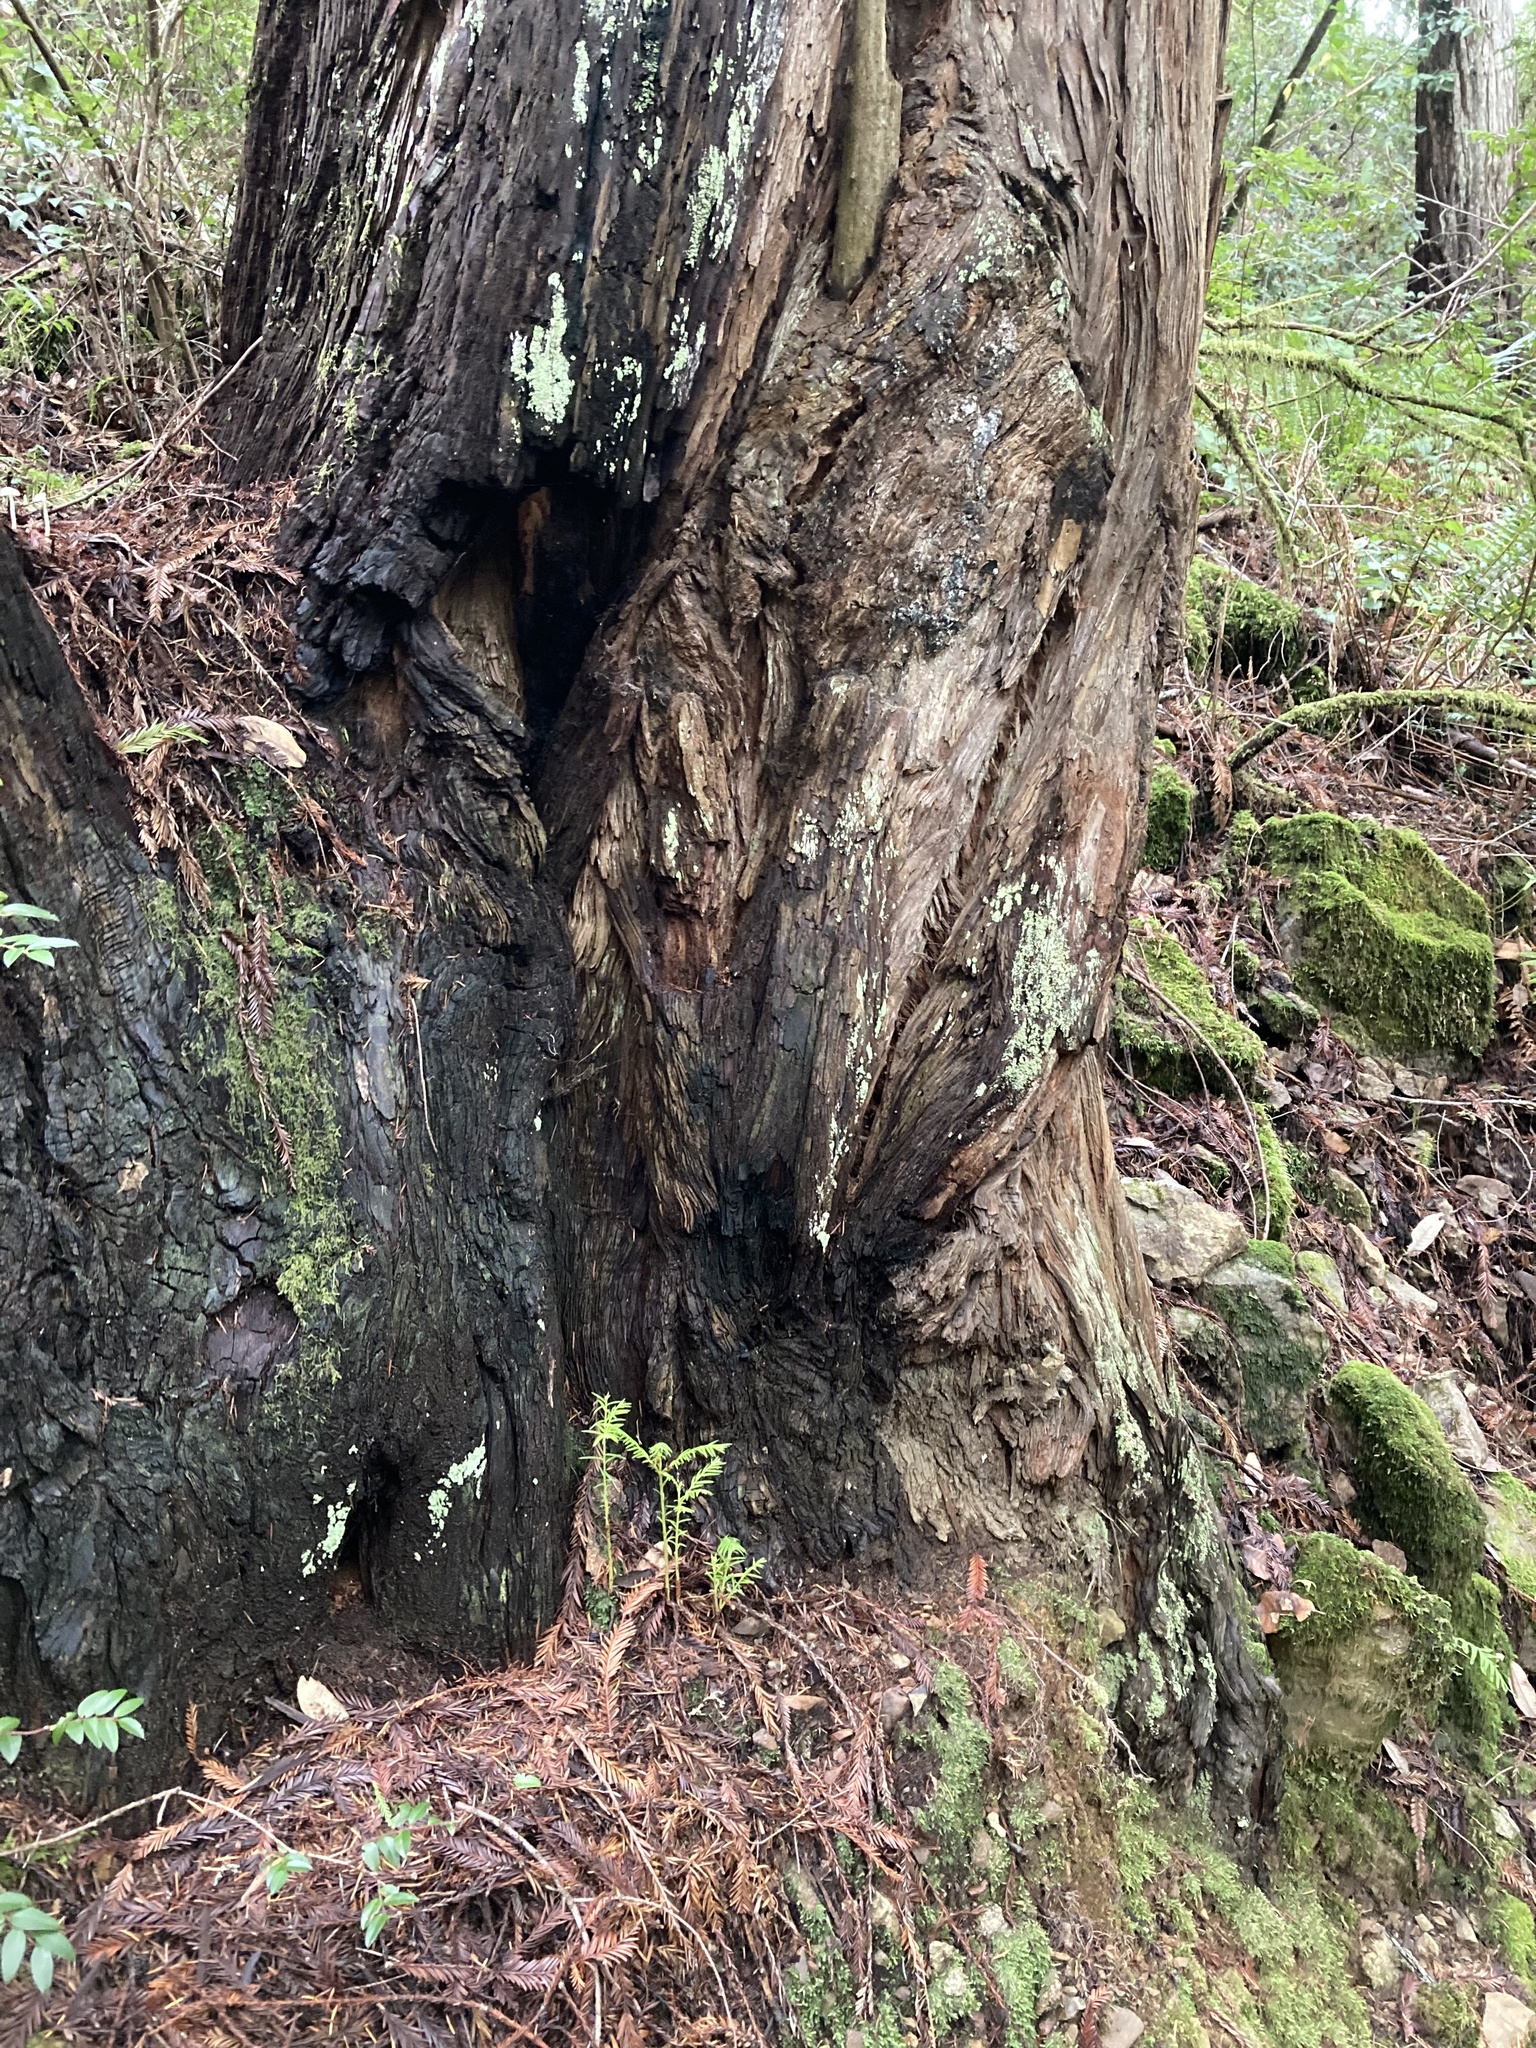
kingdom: Plantae
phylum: Tracheophyta
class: Pinopsida
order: Pinales
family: Cupressaceae
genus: Sequoia
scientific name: Sequoia sempervirens
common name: Coast redwood
